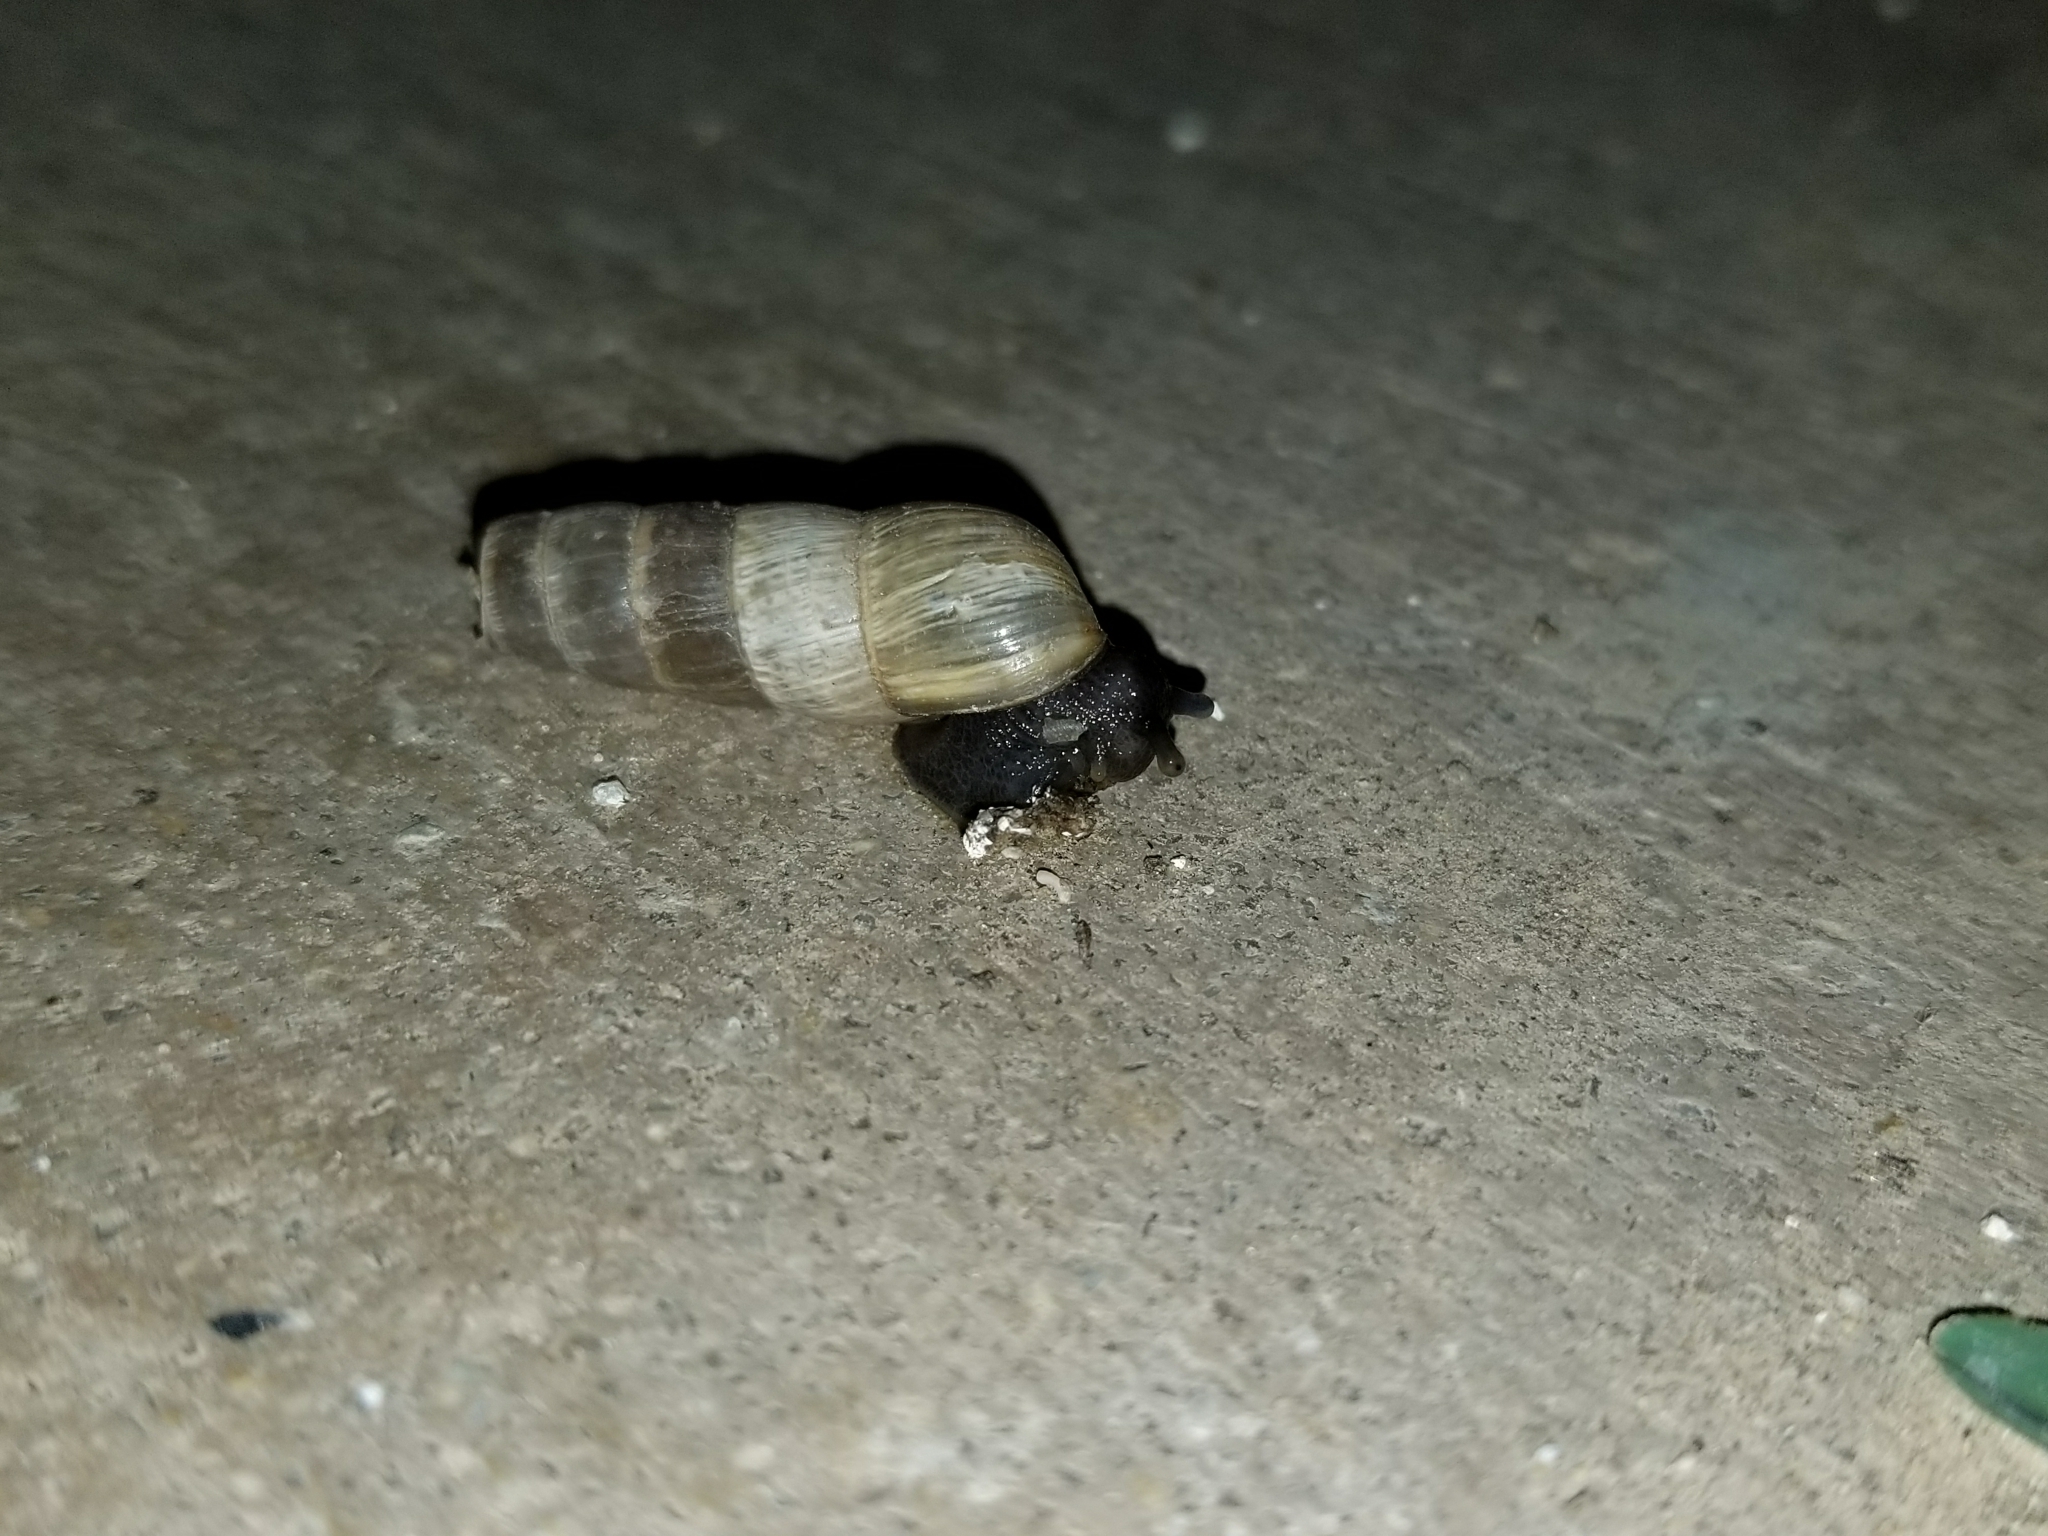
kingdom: Animalia
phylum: Mollusca
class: Gastropoda
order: Stylommatophora
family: Achatinidae
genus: Rumina
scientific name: Rumina decollata
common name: Decollate snail
